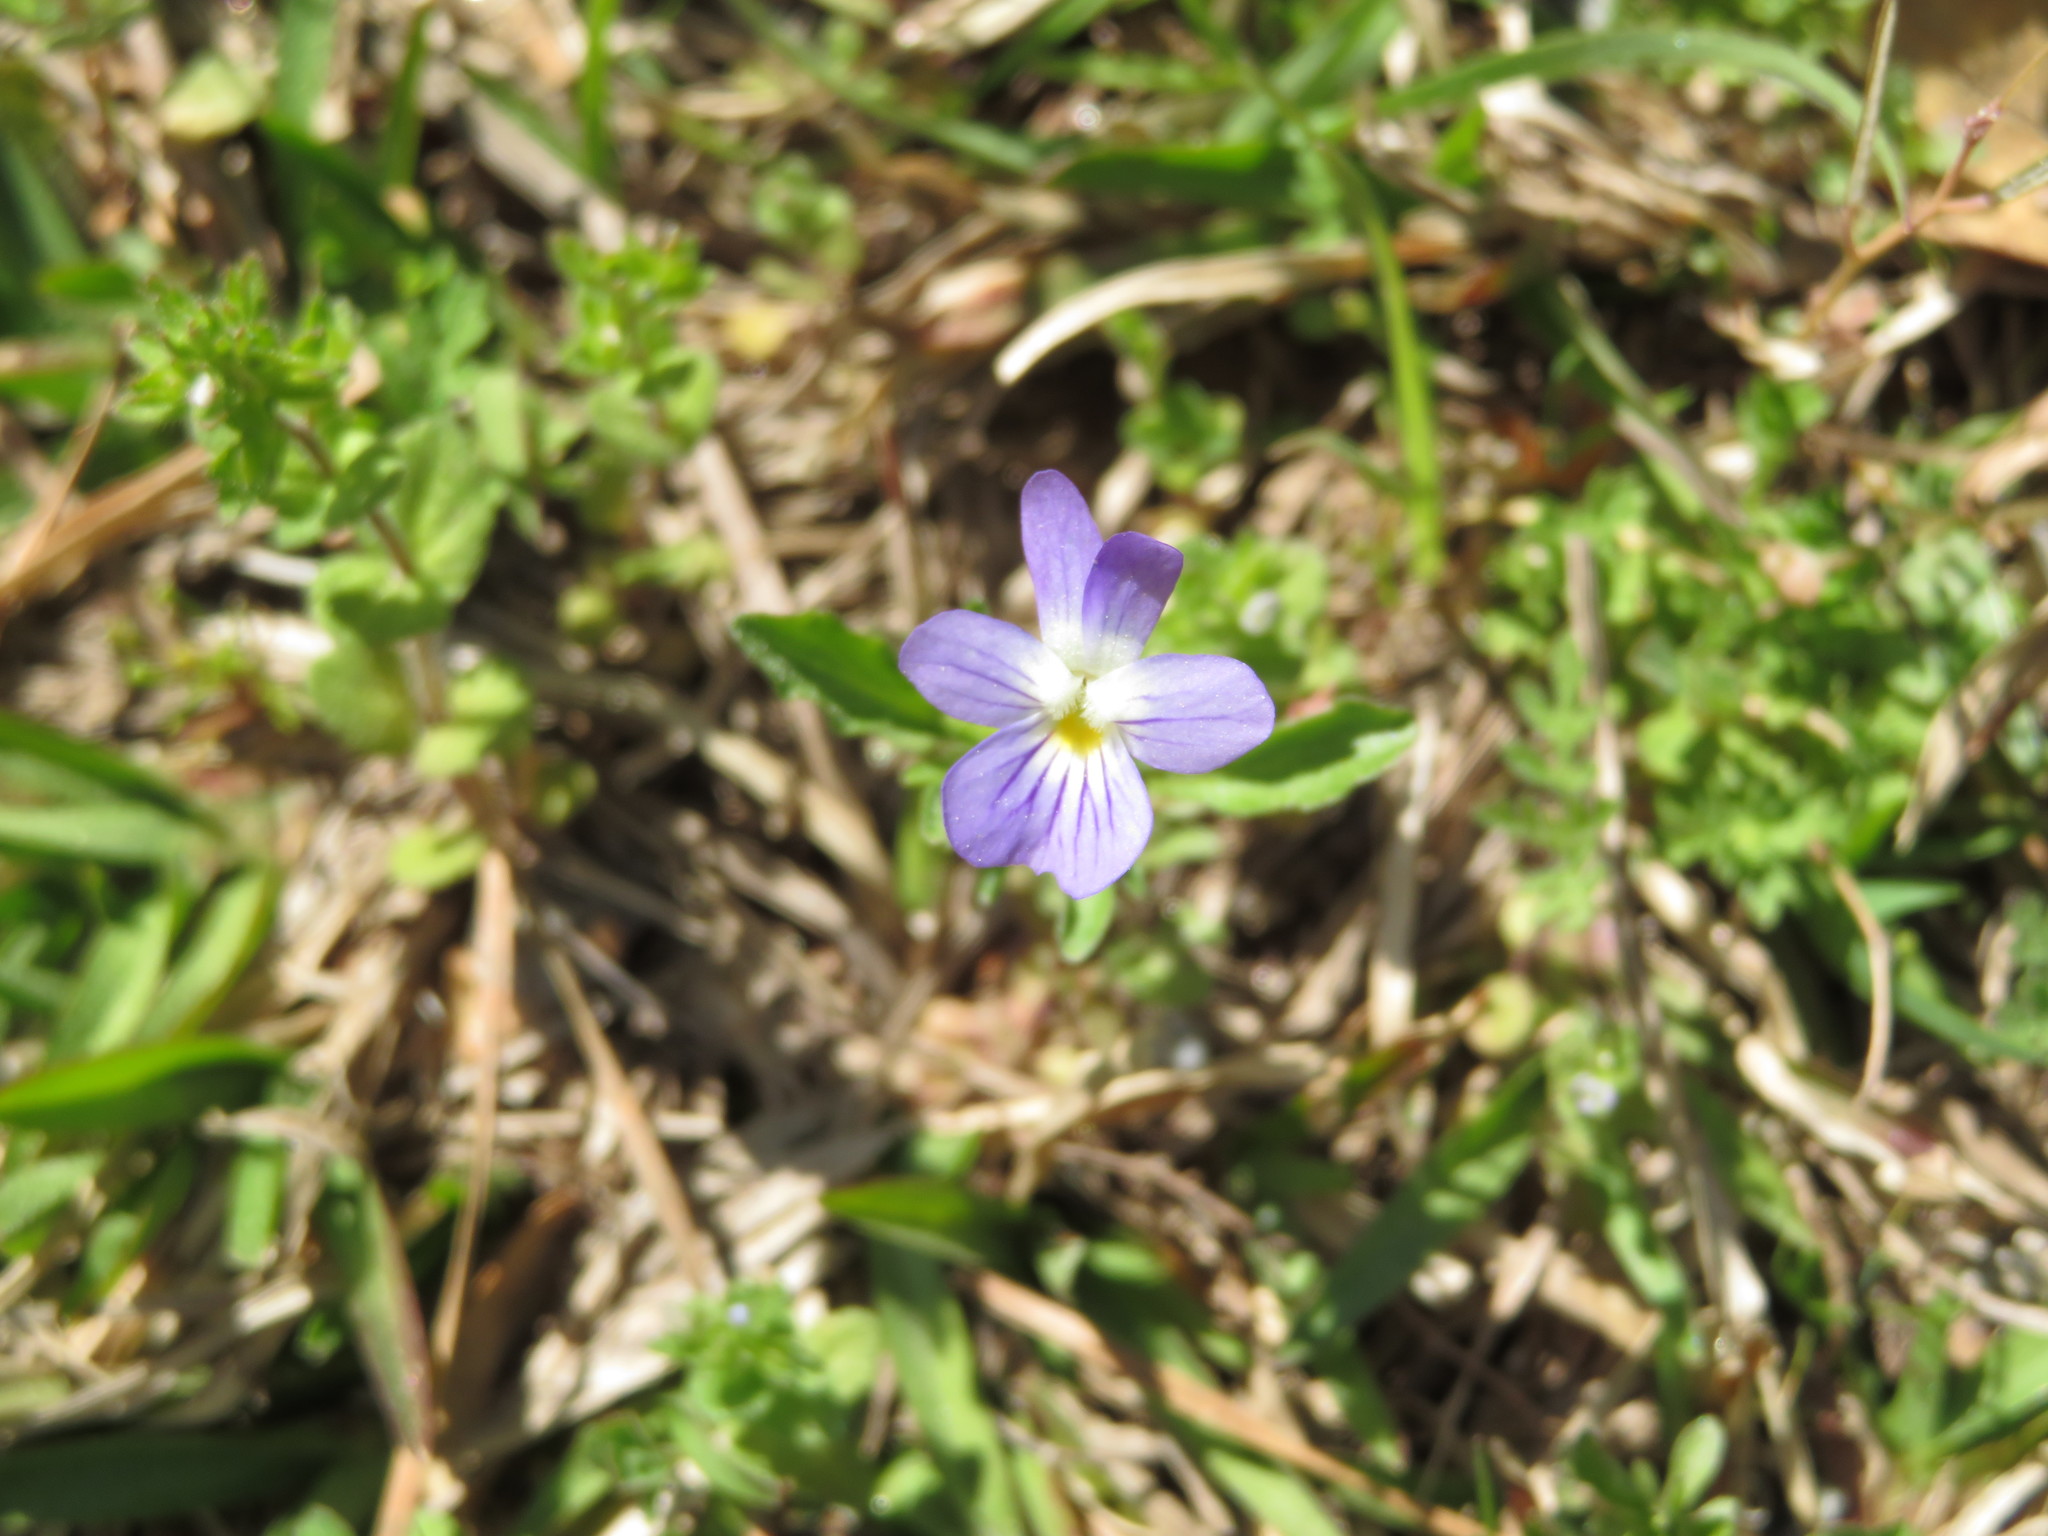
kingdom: Plantae
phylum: Tracheophyta
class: Magnoliopsida
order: Malpighiales
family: Violaceae
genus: Viola
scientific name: Viola rafinesquei
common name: American field pansy
